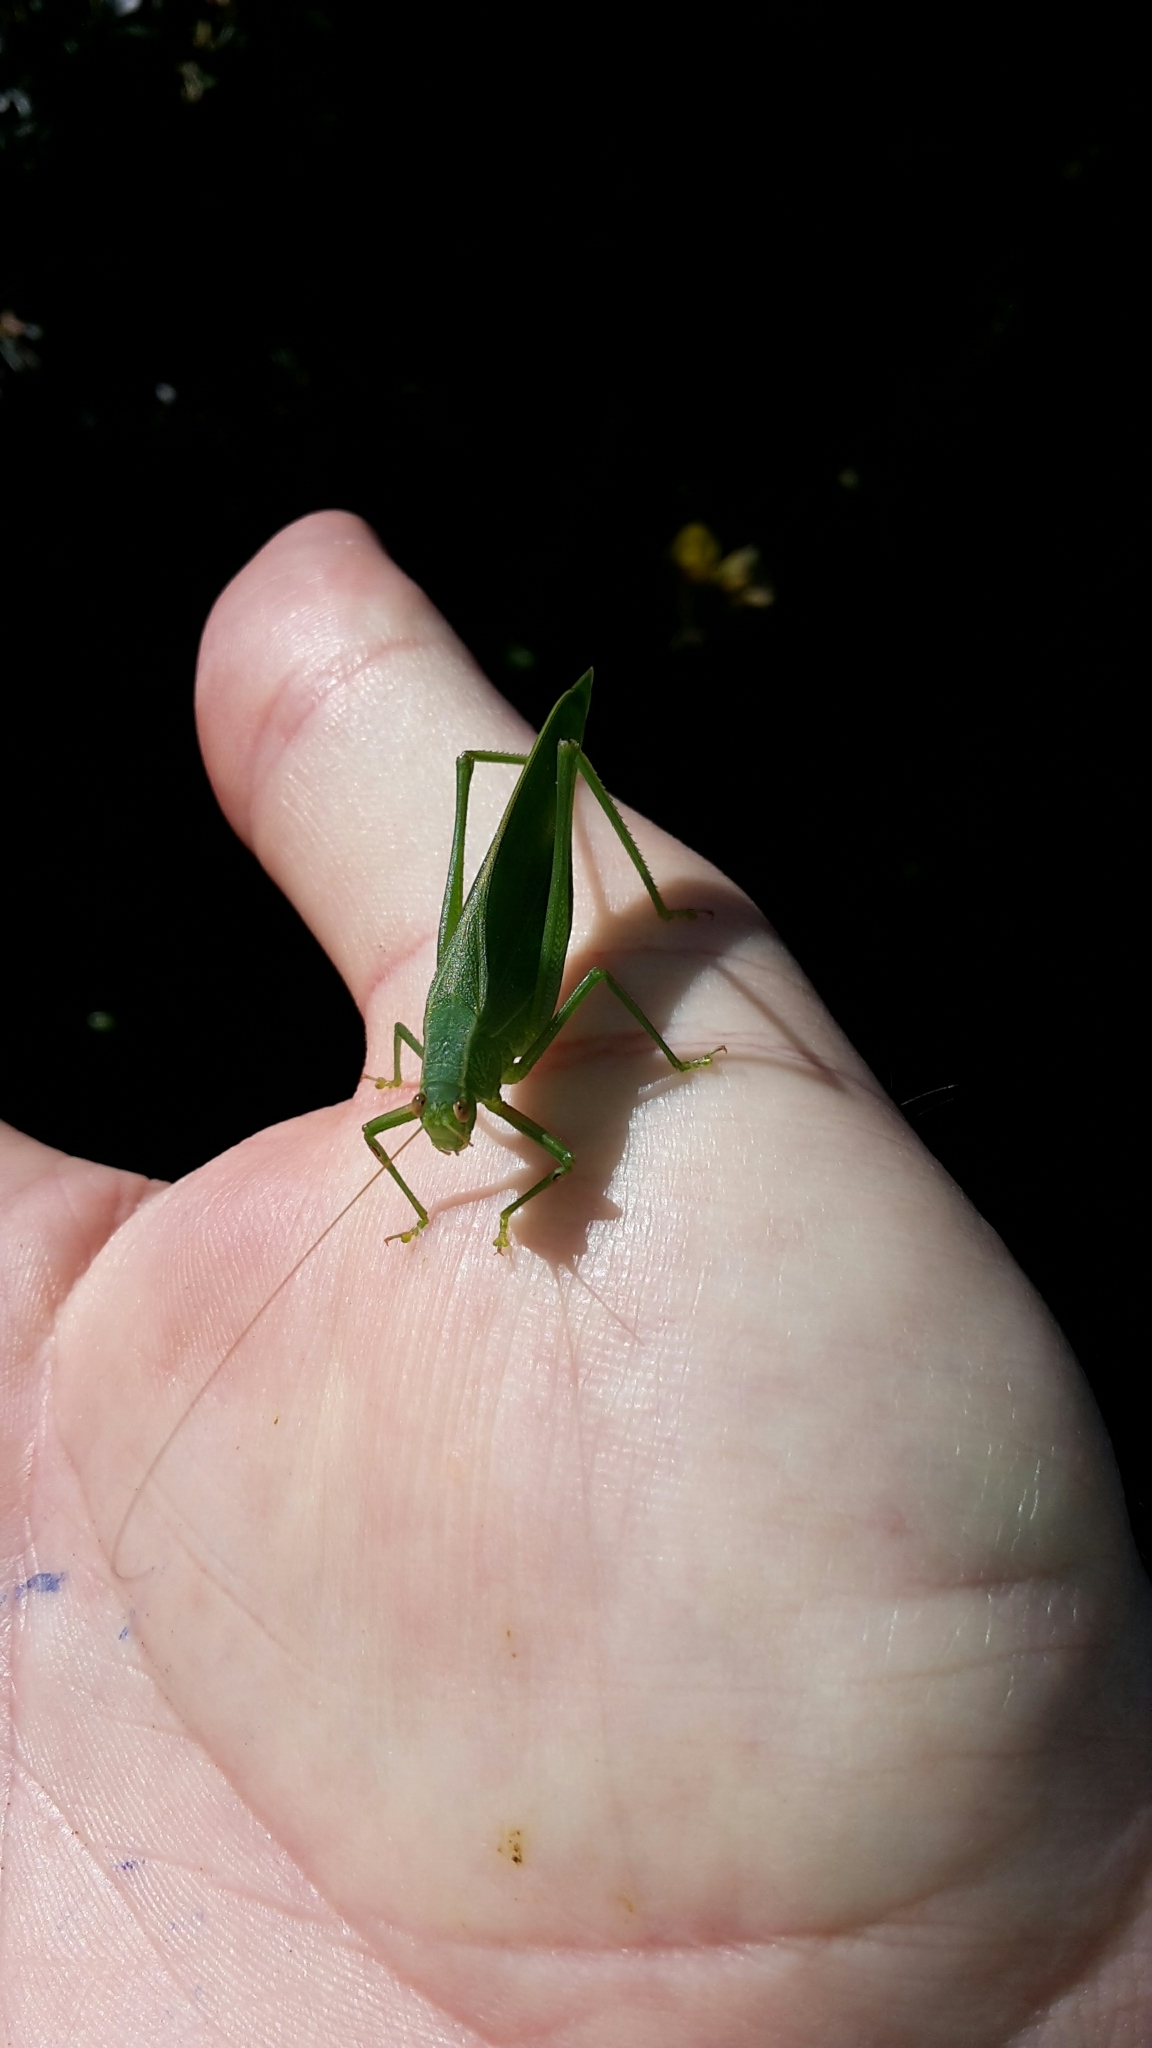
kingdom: Animalia
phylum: Arthropoda
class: Insecta
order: Orthoptera
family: Tettigoniidae
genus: Caedicia
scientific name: Caedicia simplex
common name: Common garden katydid
